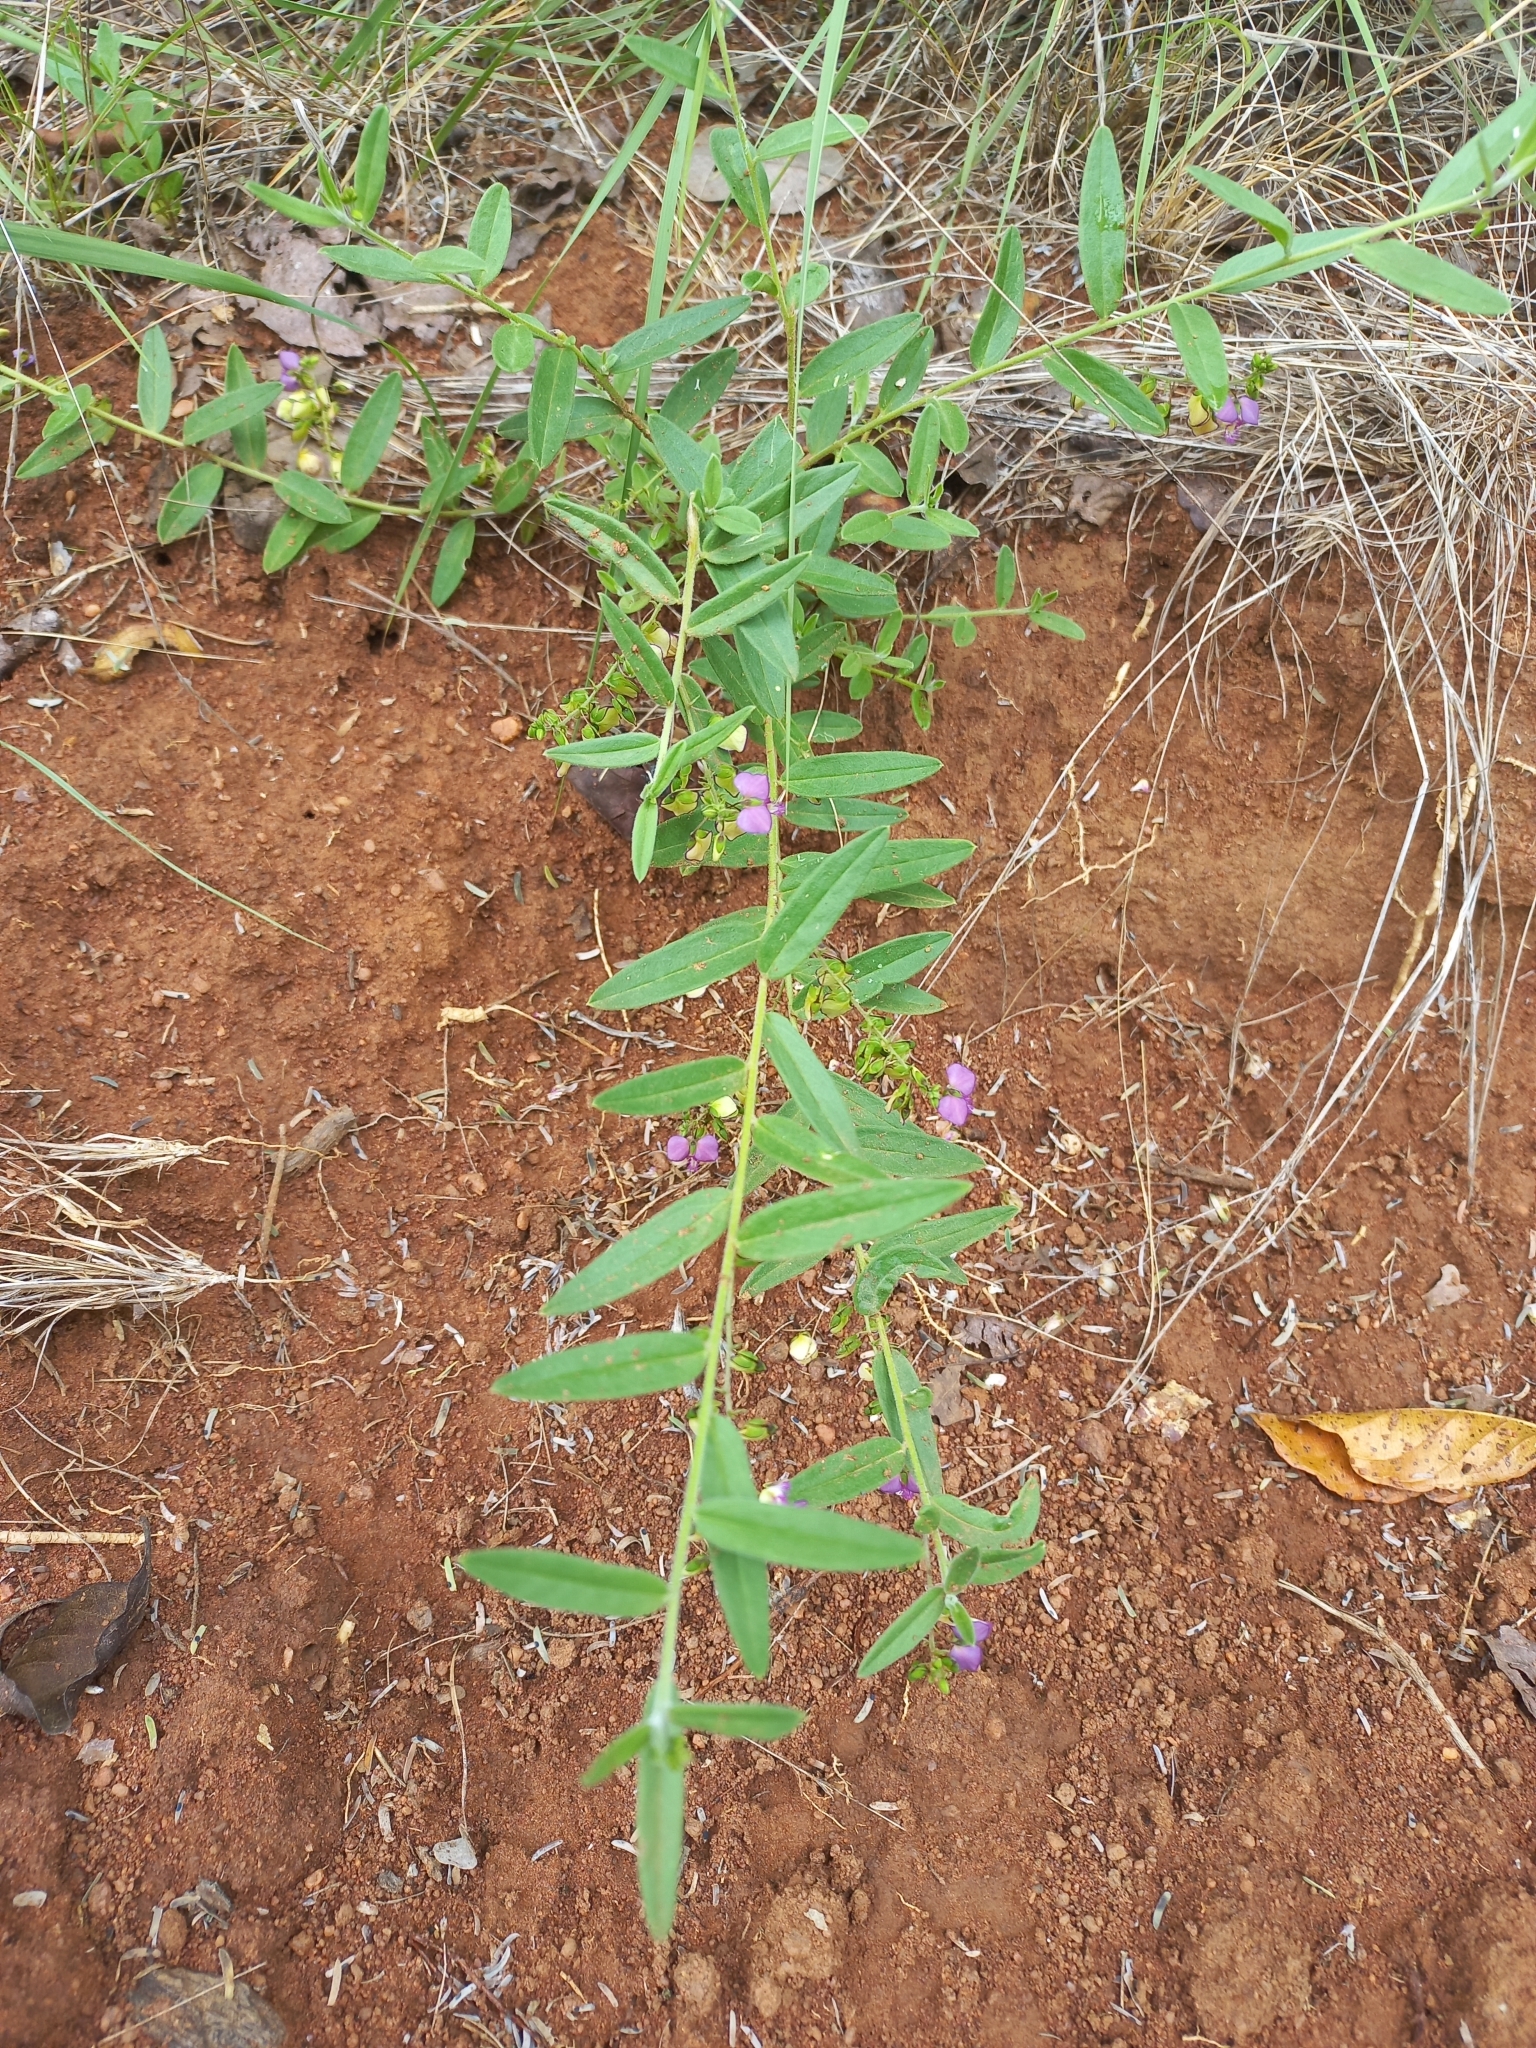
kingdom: Plantae
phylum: Tracheophyta
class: Magnoliopsida
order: Fabales
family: Polygalaceae
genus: Polygala
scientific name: Polygala sphenoptera
